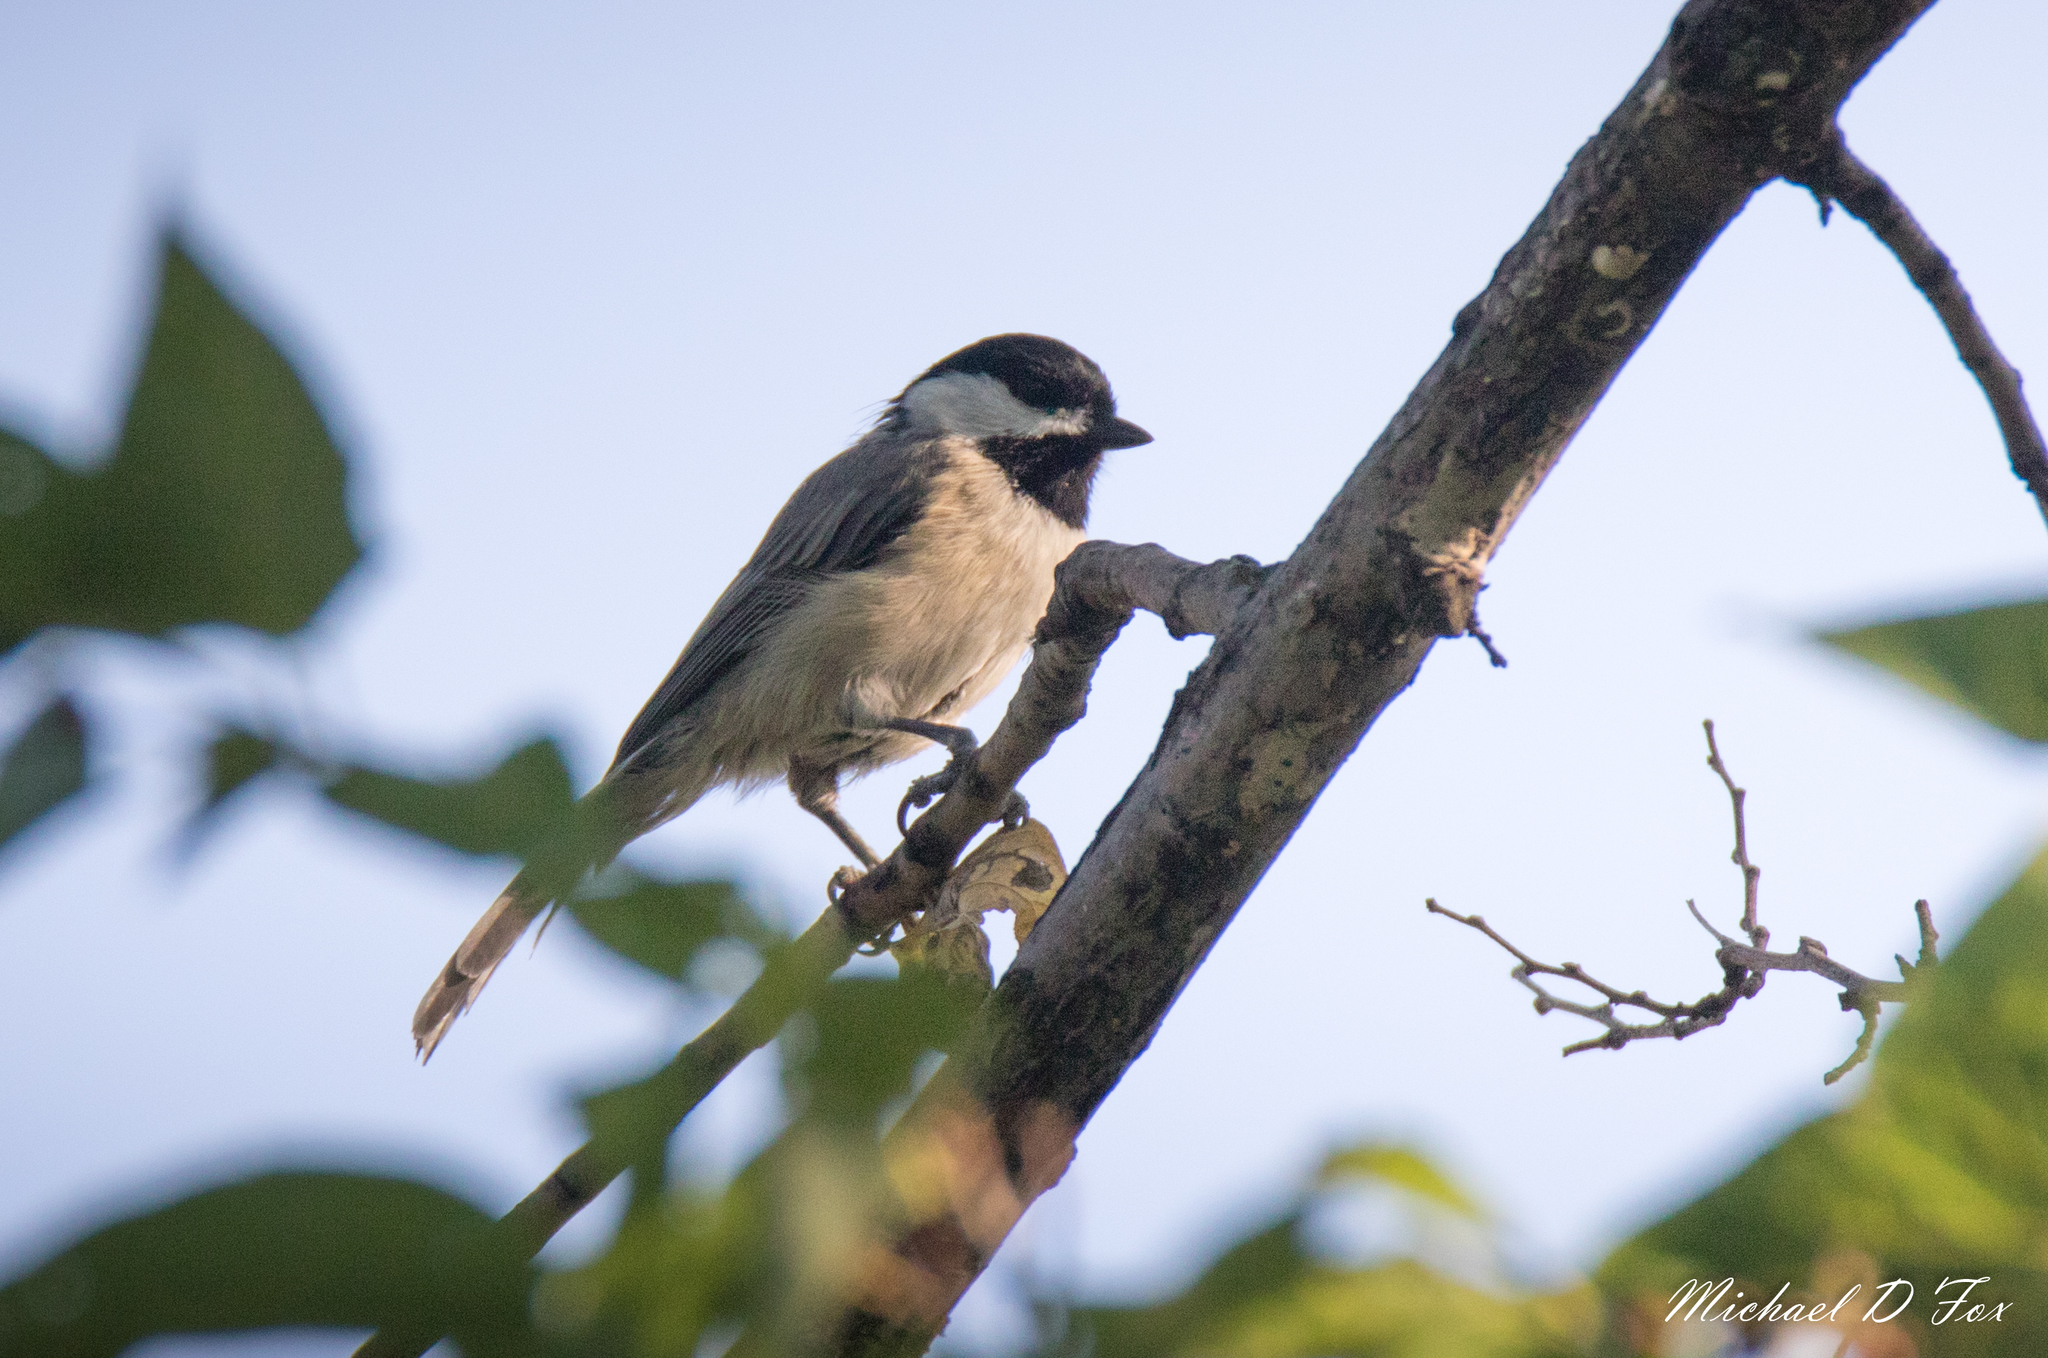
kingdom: Animalia
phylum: Chordata
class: Aves
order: Passeriformes
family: Paridae
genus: Poecile
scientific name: Poecile carolinensis
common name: Carolina chickadee
